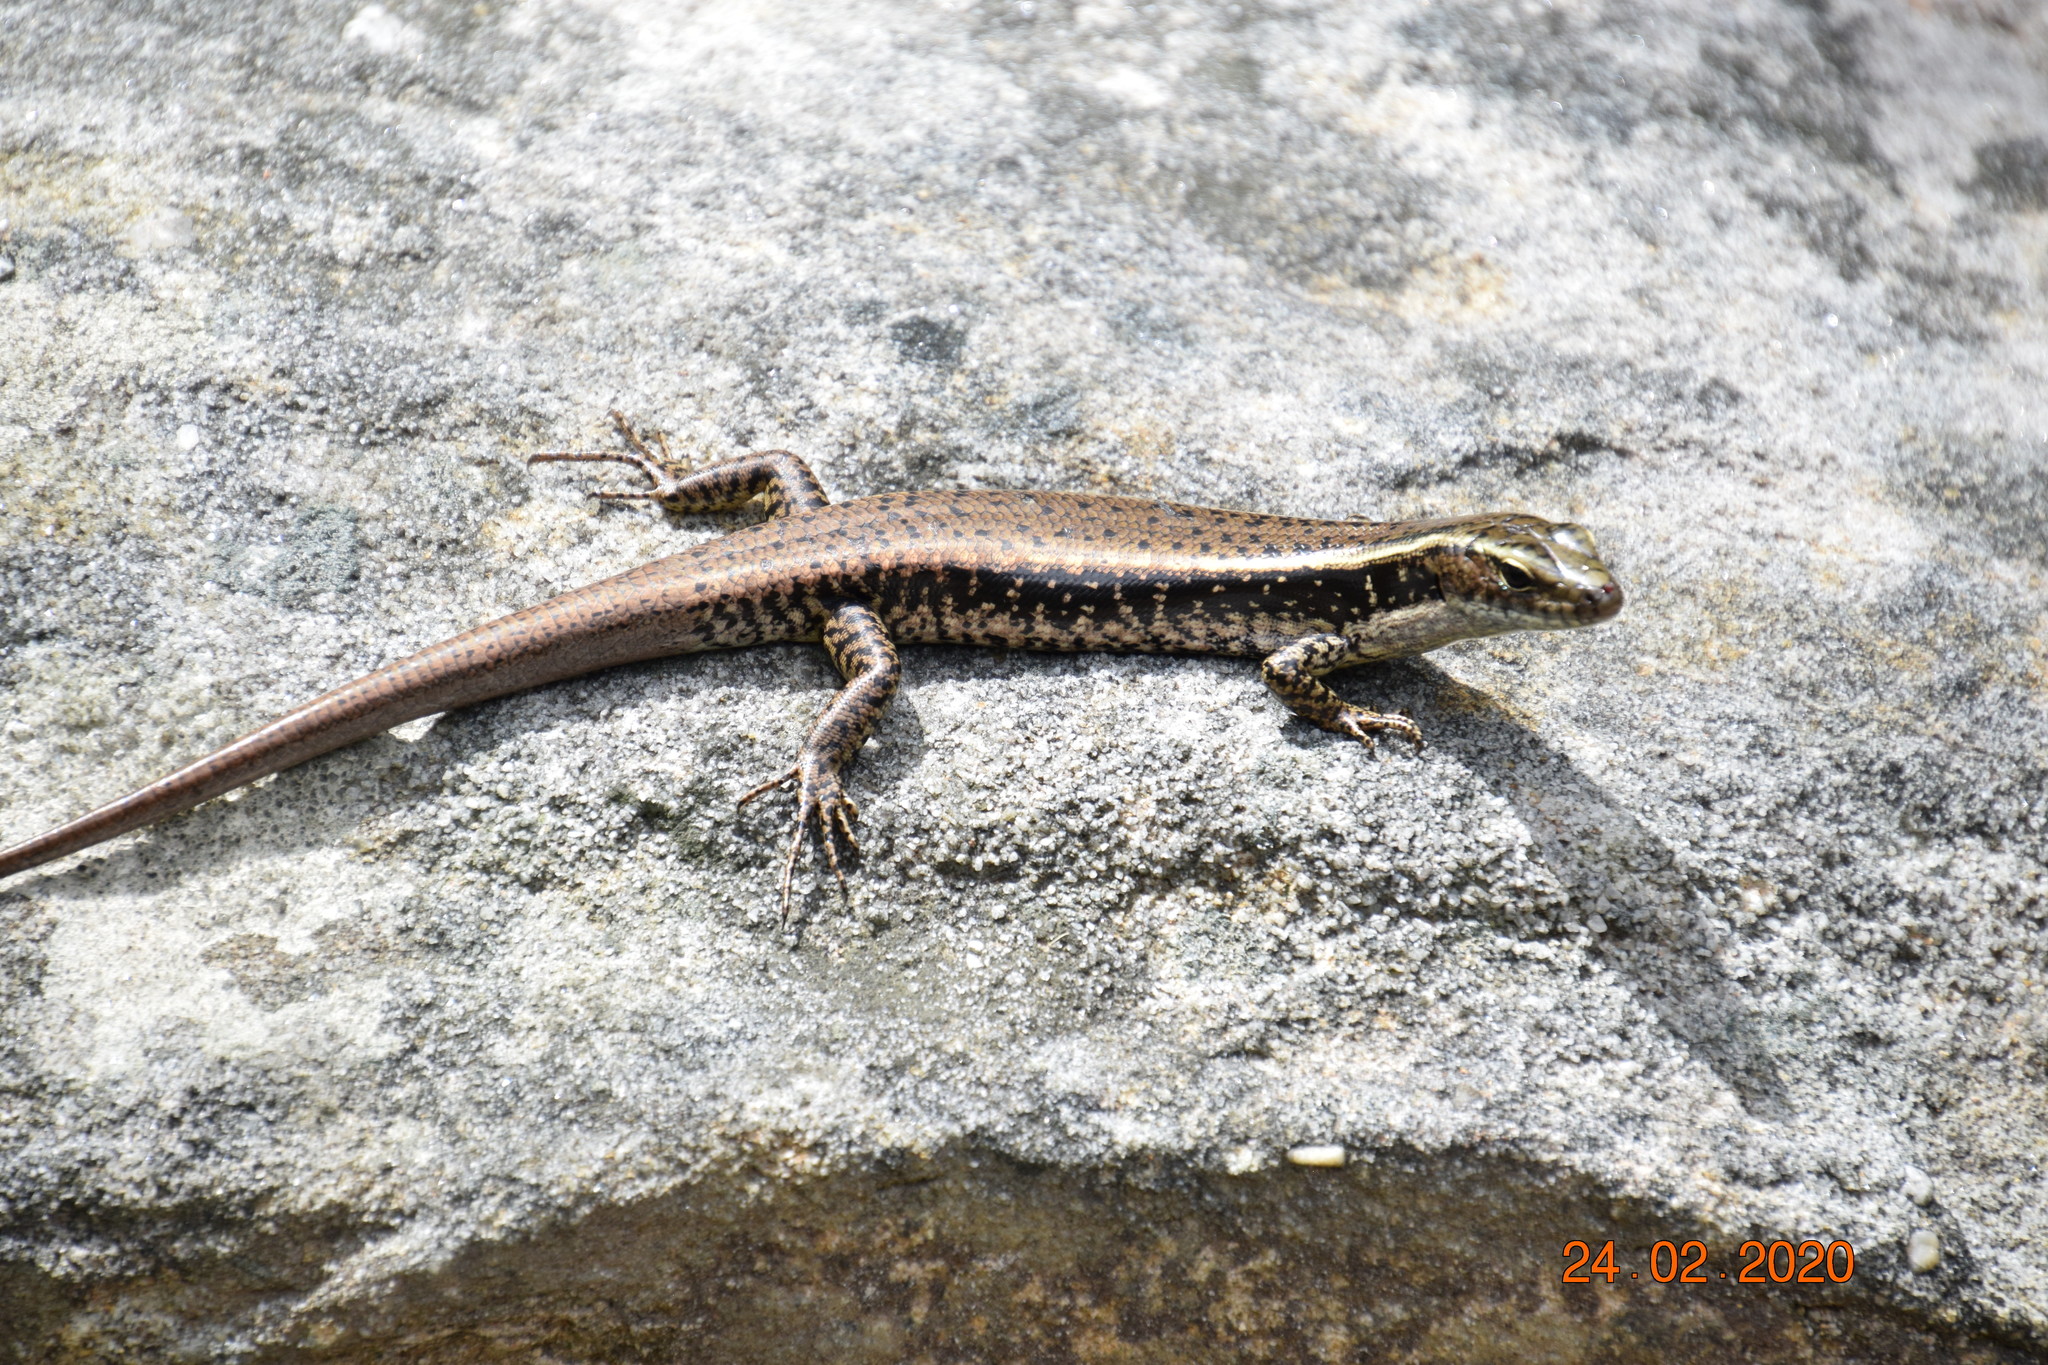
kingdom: Animalia
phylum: Chordata
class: Squamata
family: Scincidae
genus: Eulamprus
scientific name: Eulamprus quoyii
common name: Eastern water skink
